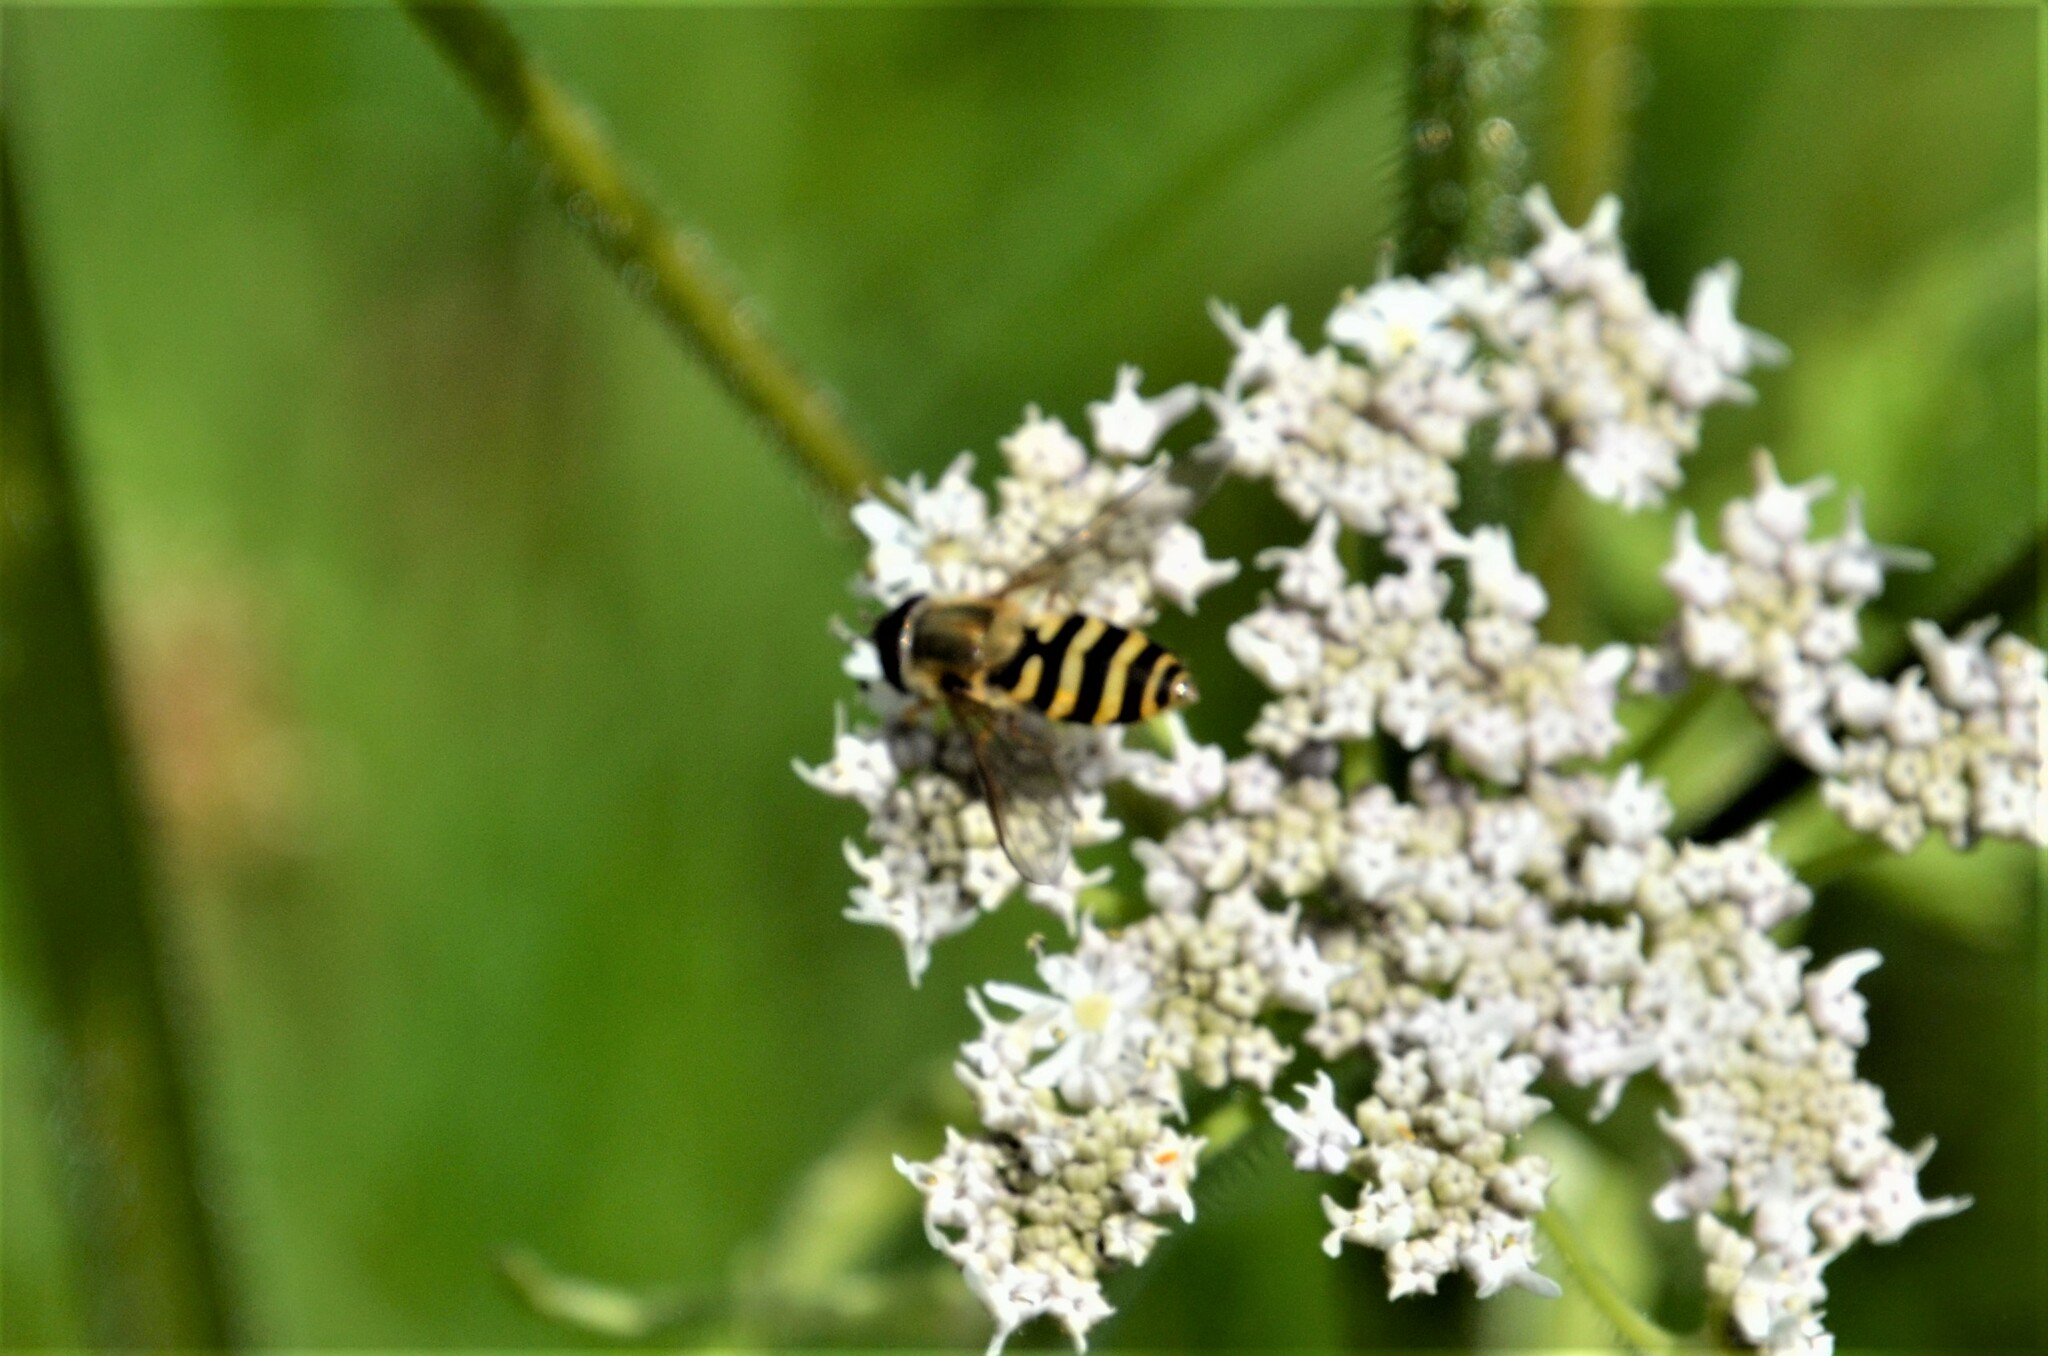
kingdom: Animalia
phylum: Arthropoda
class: Insecta
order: Diptera
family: Syrphidae
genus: Syrphus
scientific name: Syrphus
